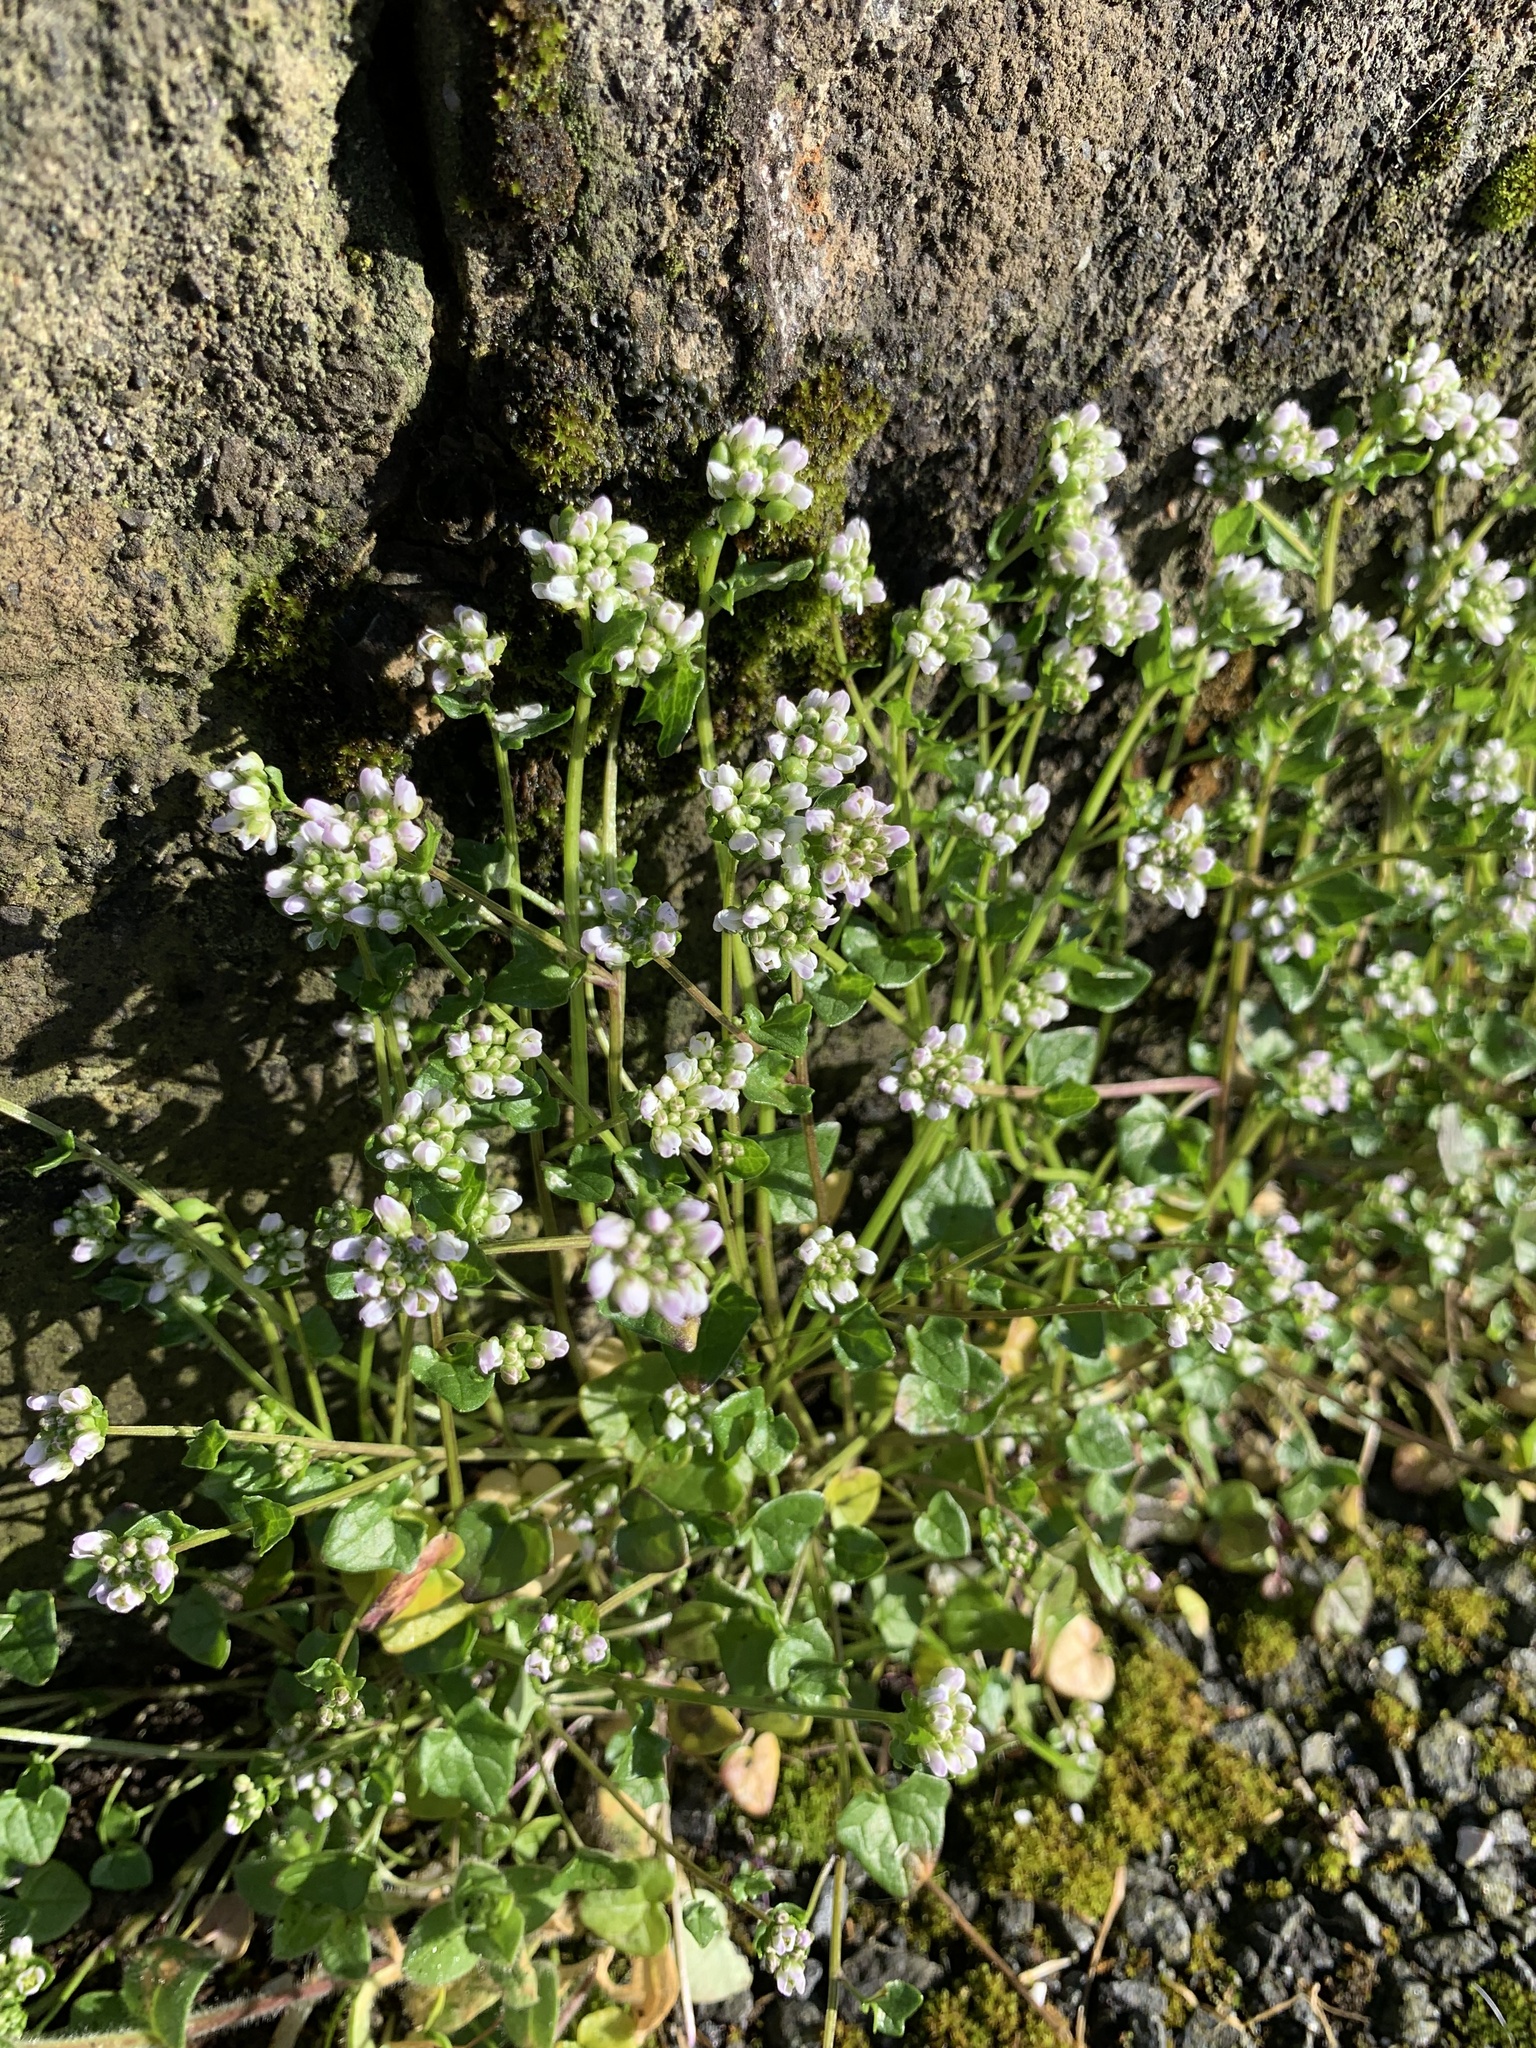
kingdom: Plantae
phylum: Tracheophyta
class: Magnoliopsida
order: Brassicales
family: Brassicaceae
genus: Cochlearia
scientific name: Cochlearia danica
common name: Early scurvygrass
